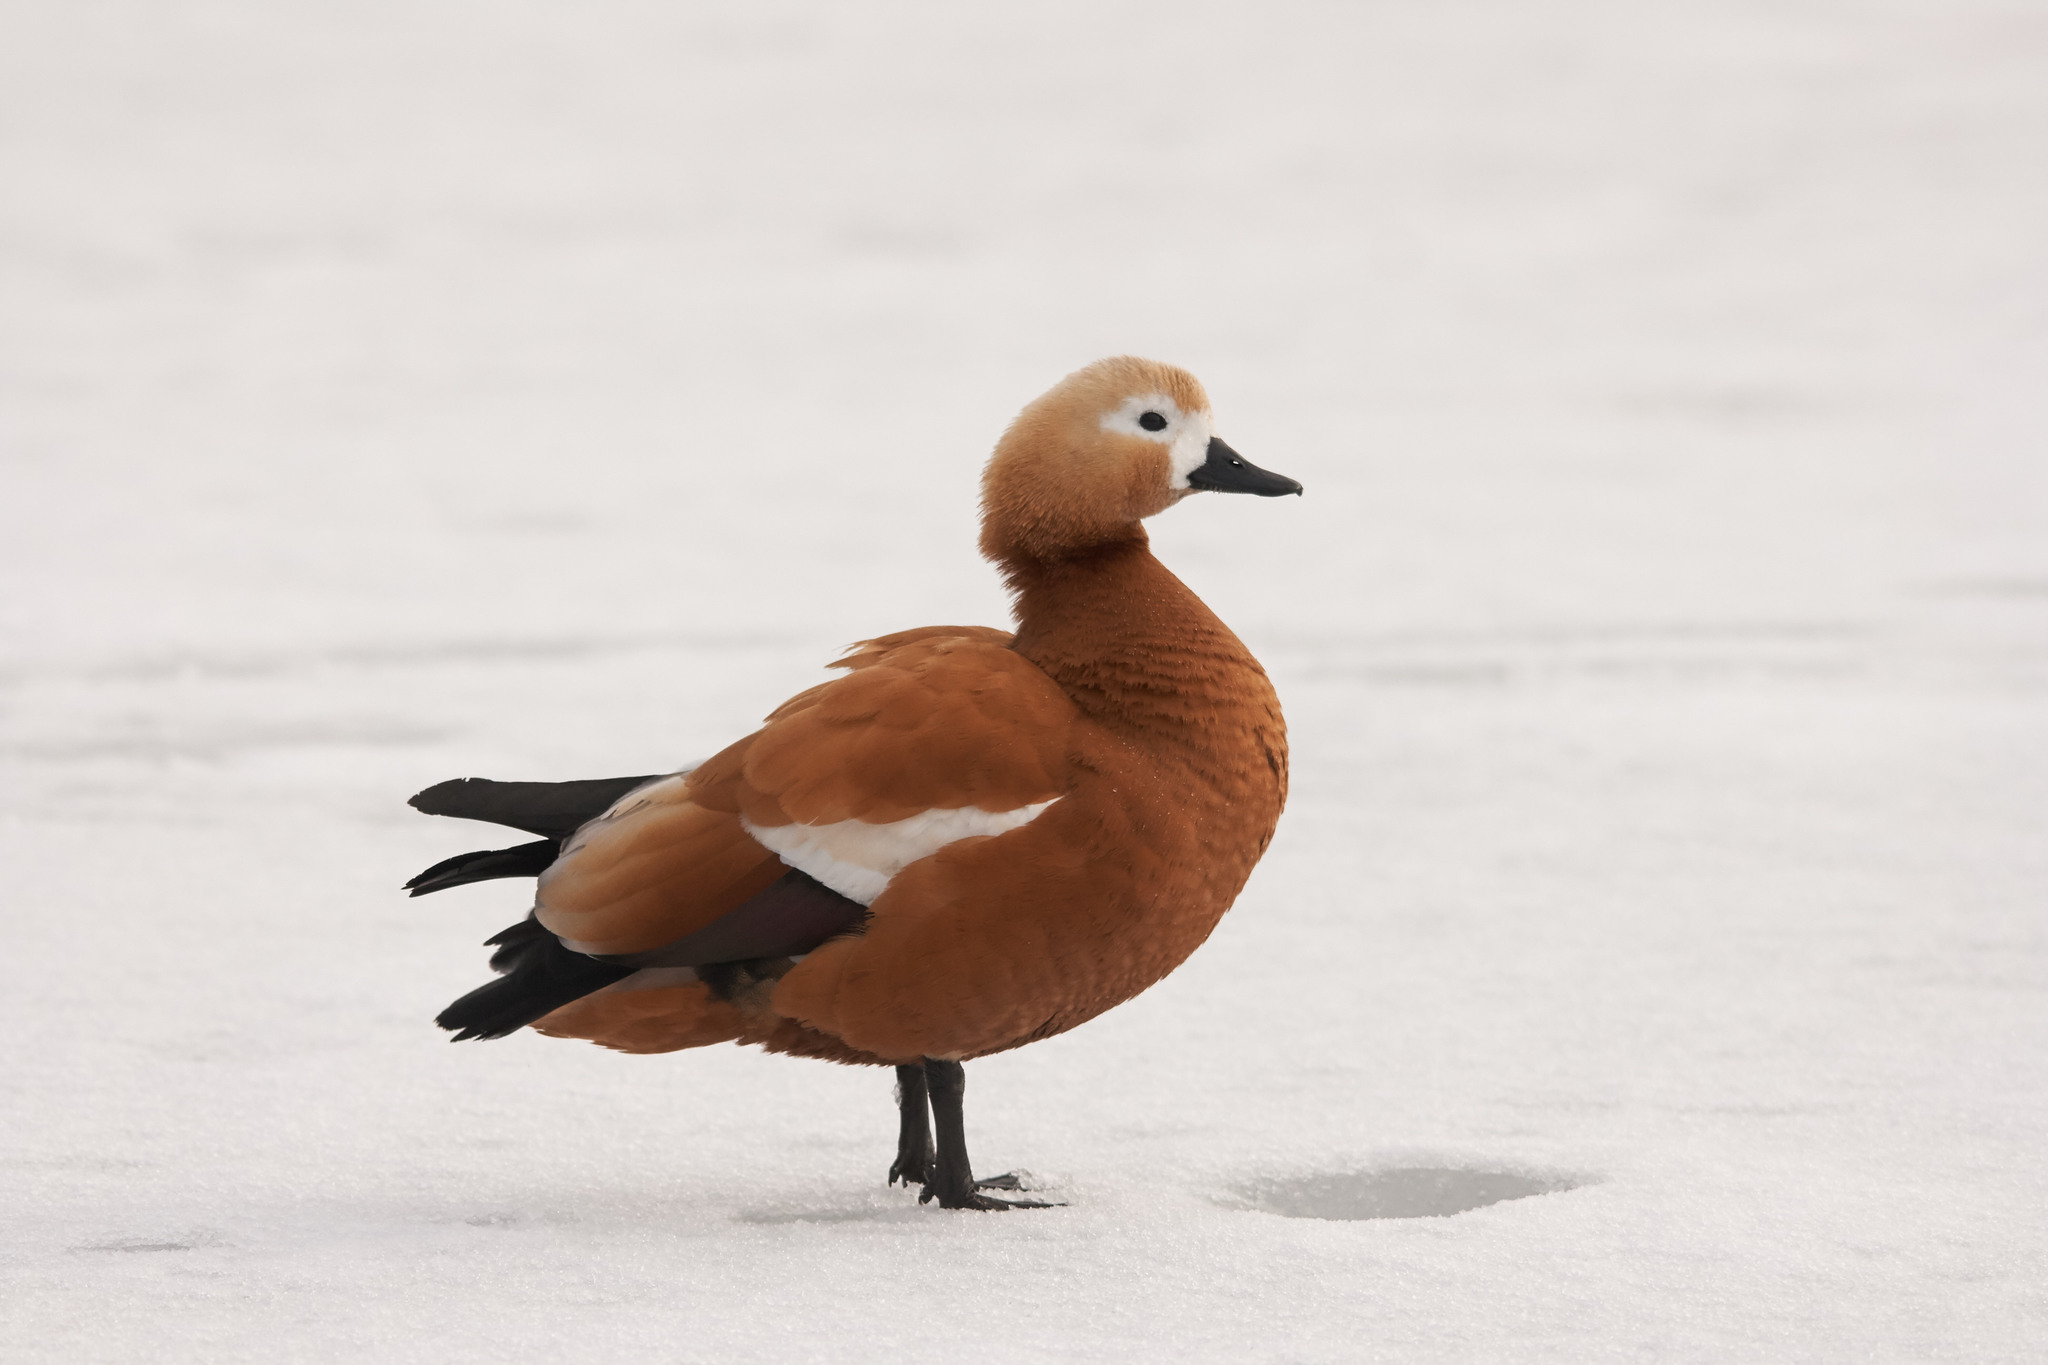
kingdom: Animalia
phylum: Chordata
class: Aves
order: Anseriformes
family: Anatidae
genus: Tadorna
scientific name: Tadorna ferruginea
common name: Ruddy shelduck
